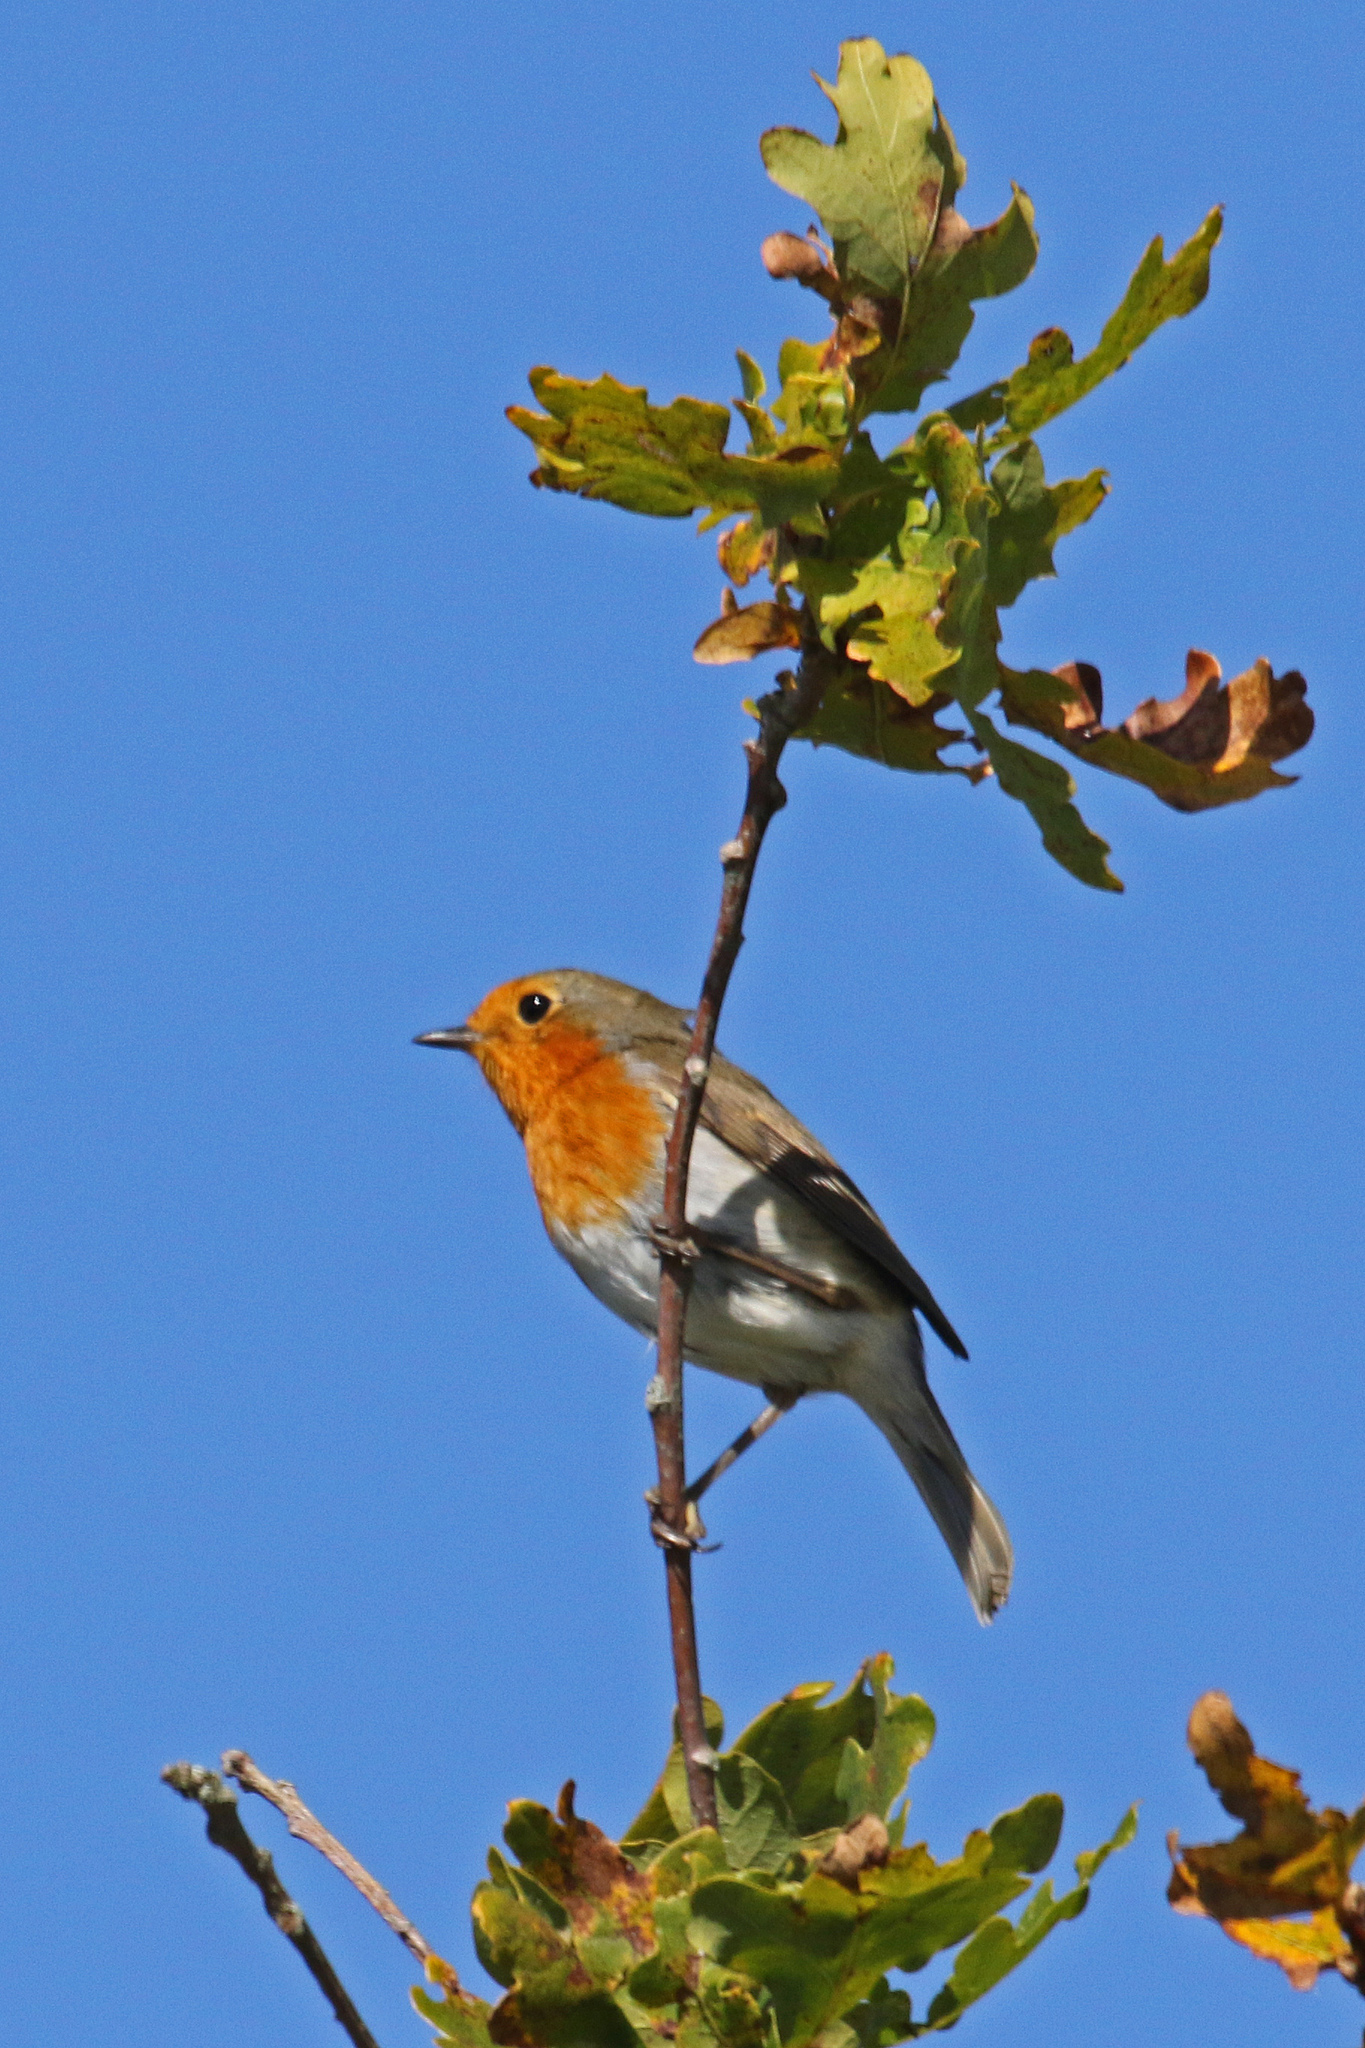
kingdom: Animalia
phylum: Chordata
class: Aves
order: Passeriformes
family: Muscicapidae
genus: Erithacus
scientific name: Erithacus rubecula
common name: European robin
